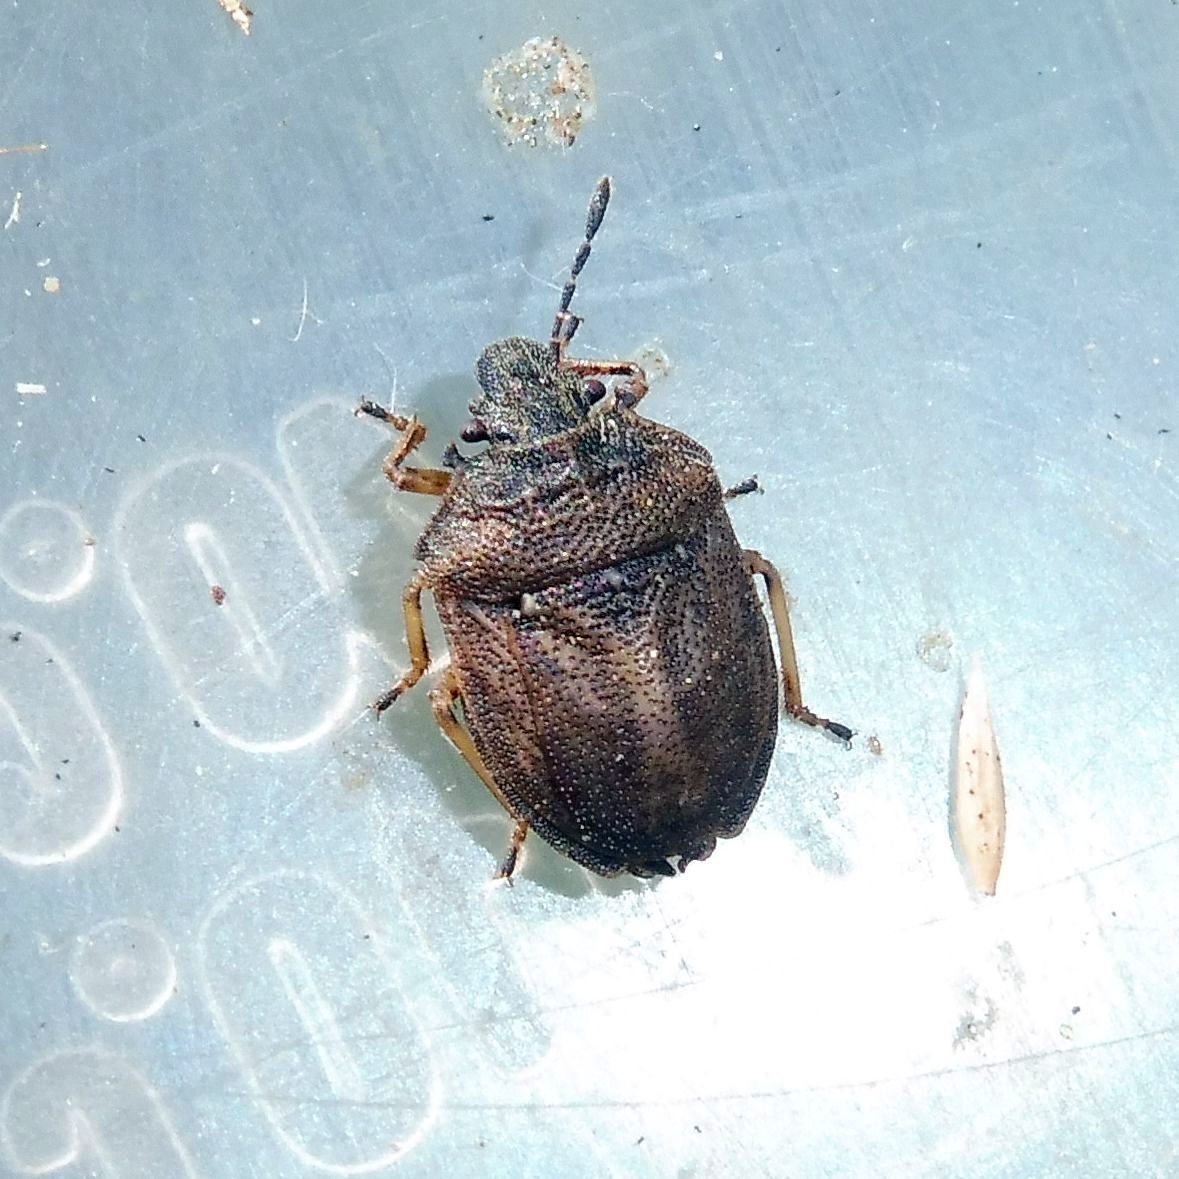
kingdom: Animalia
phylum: Arthropoda
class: Insecta
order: Hemiptera
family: Pentatomidae
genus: Podops
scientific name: Podops inunctus
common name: Turtle bug
